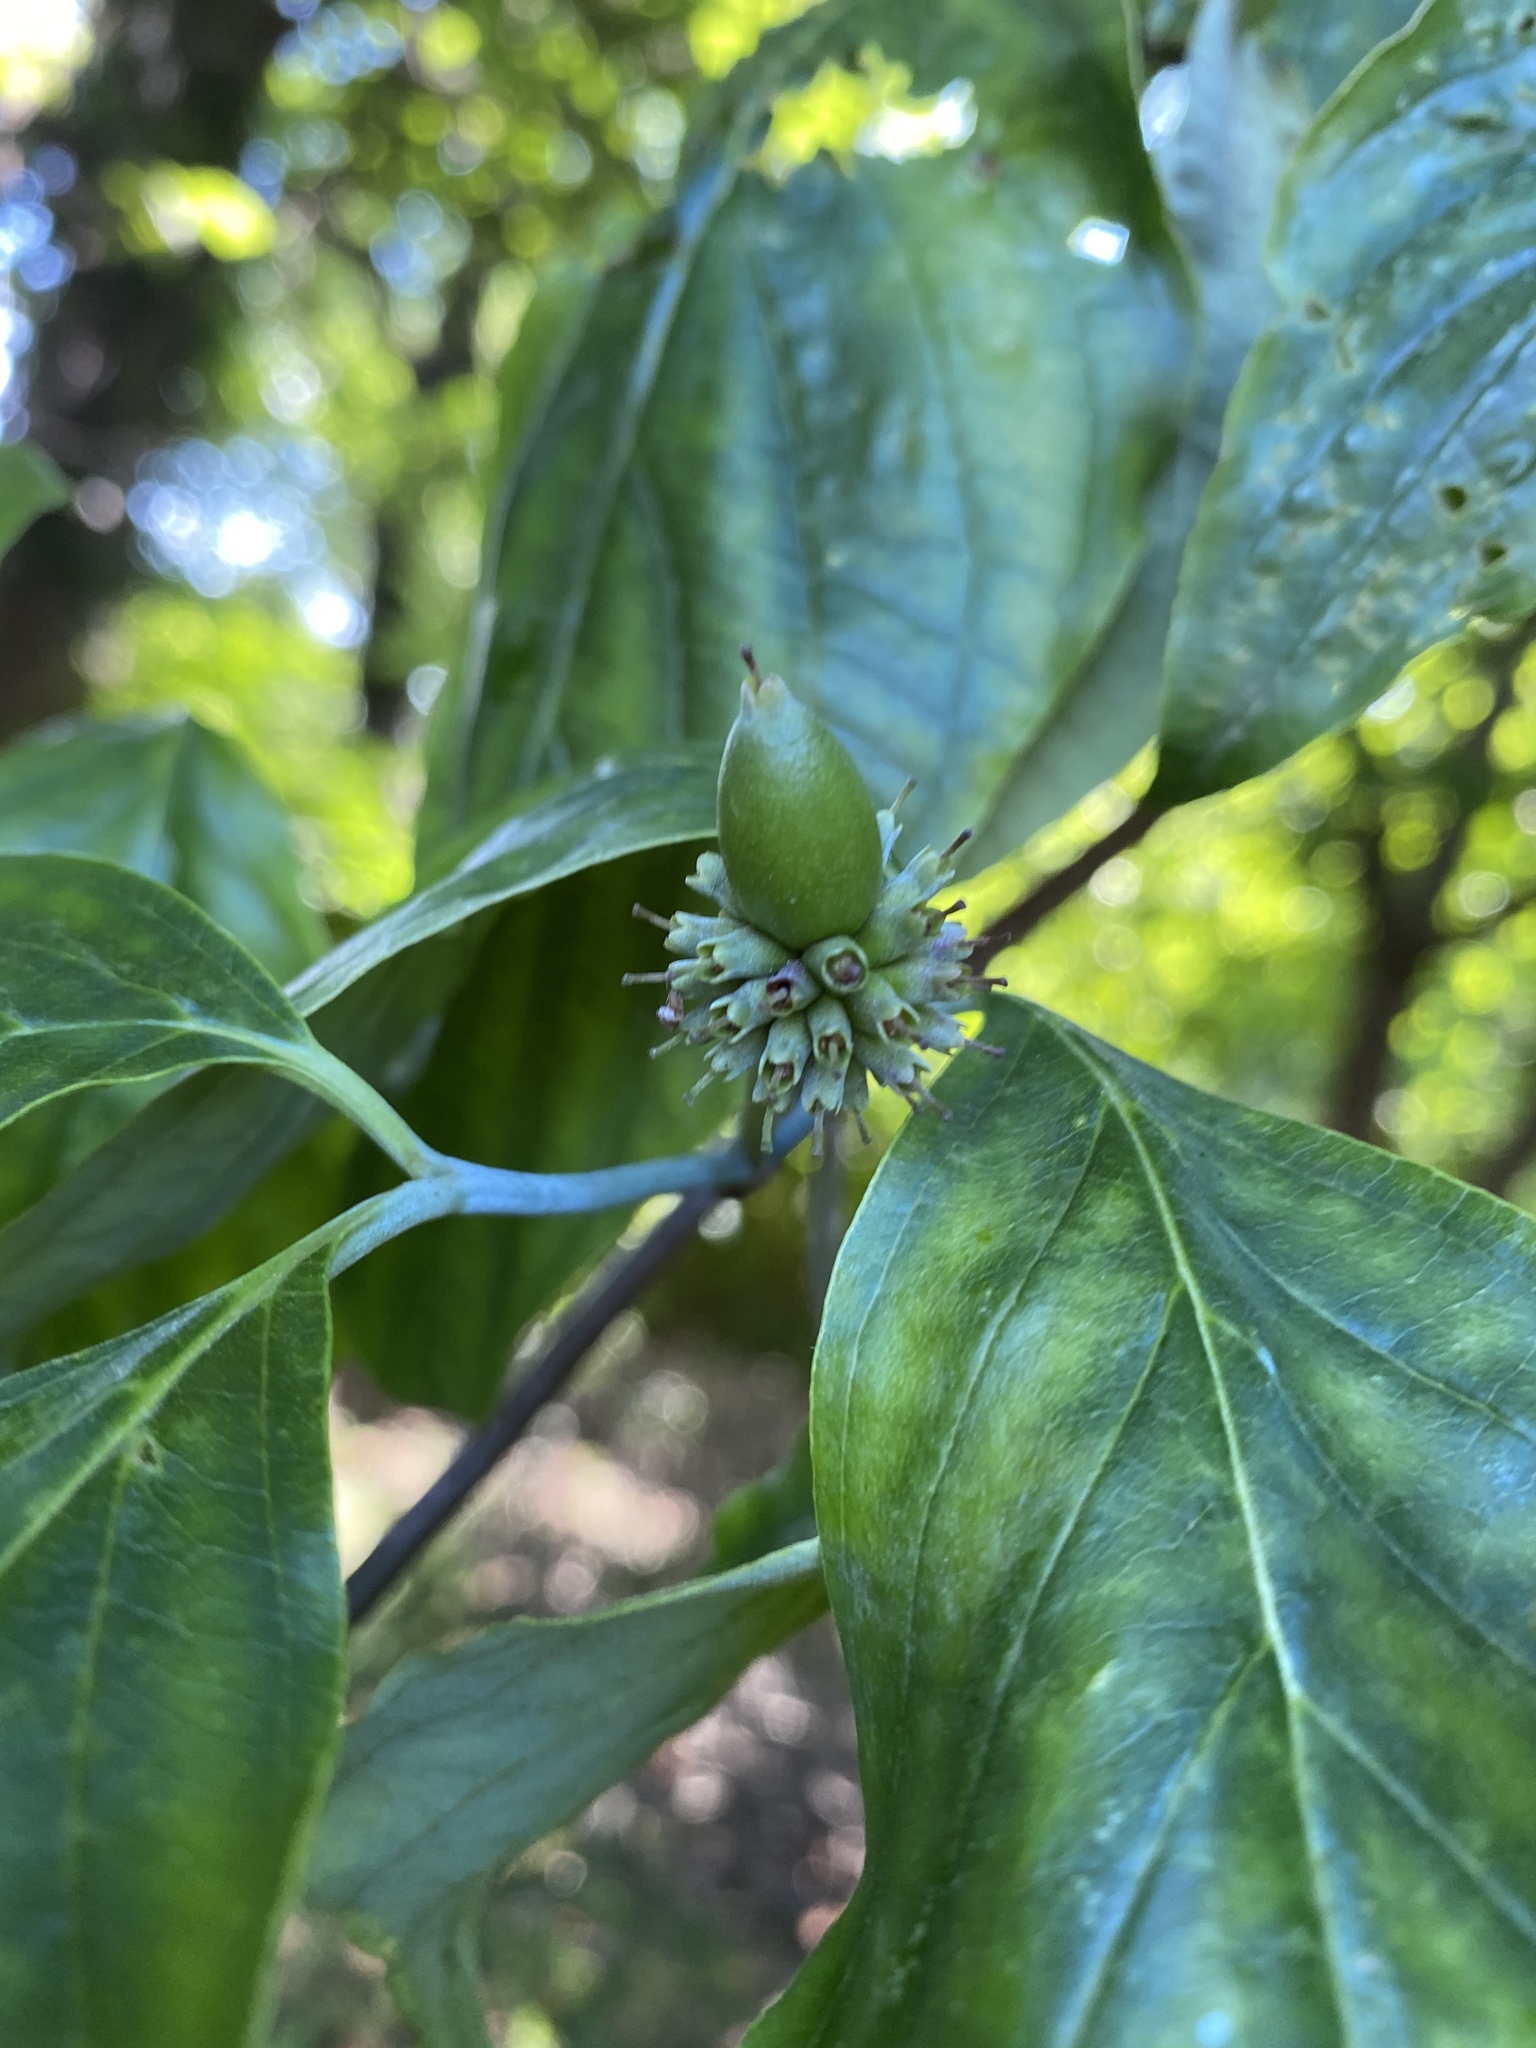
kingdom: Plantae
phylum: Tracheophyta
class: Magnoliopsida
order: Cornales
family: Cornaceae
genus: Cornus
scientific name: Cornus florida
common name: Flowering dogwood
